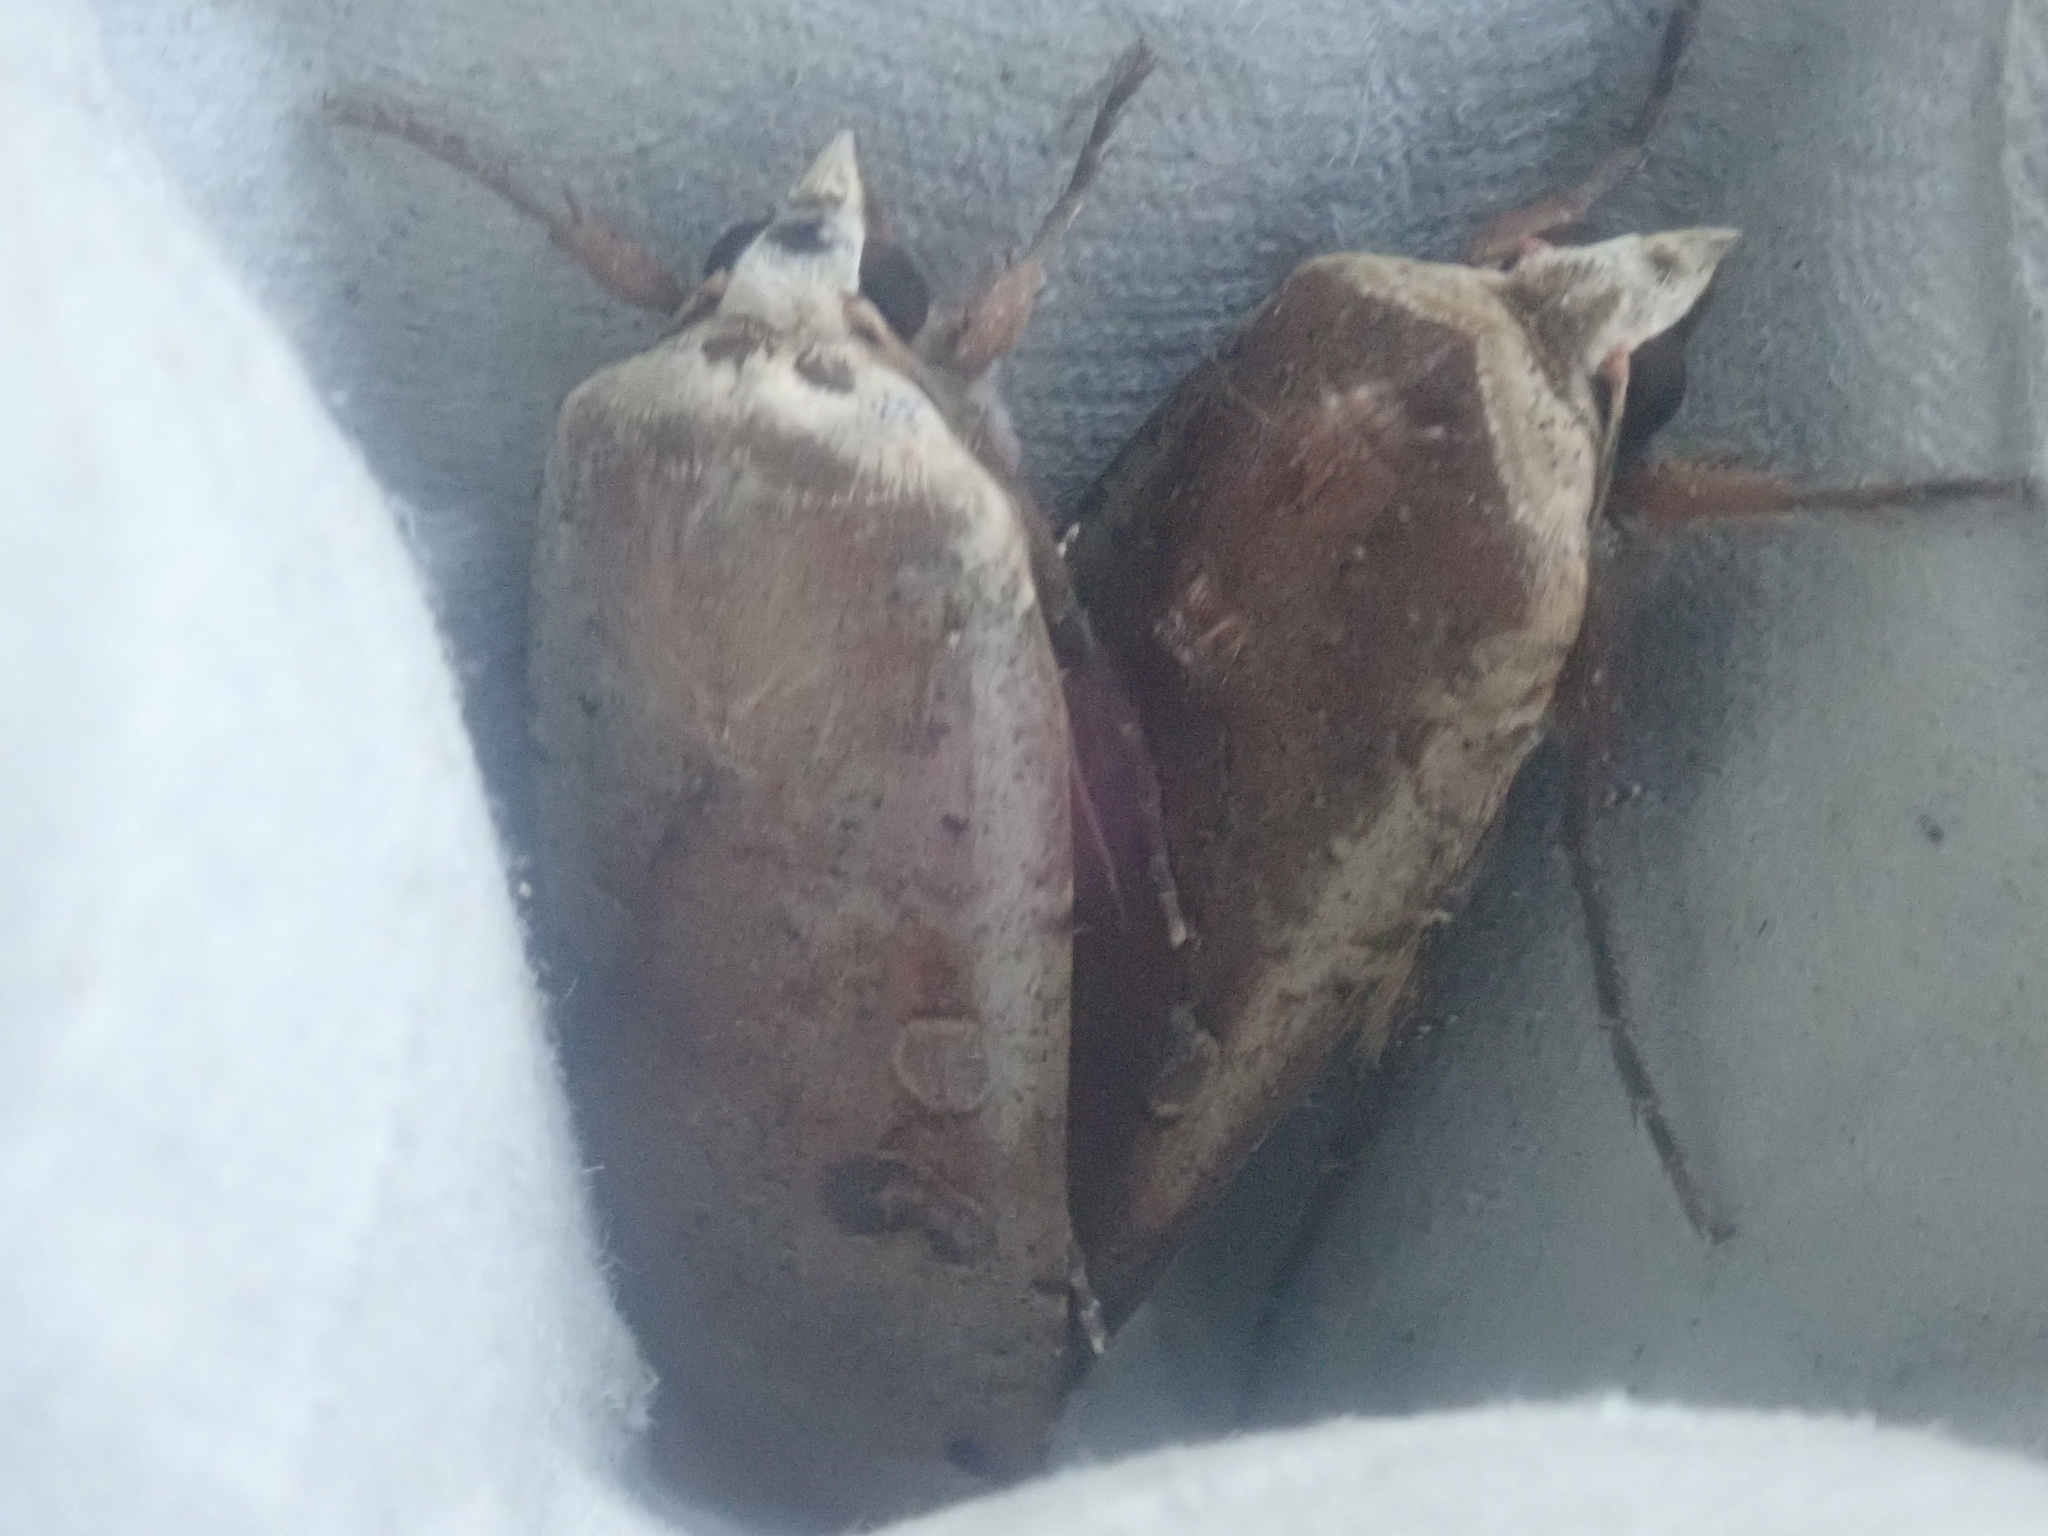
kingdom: Animalia
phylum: Arthropoda
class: Insecta
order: Lepidoptera
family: Noctuidae
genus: Noctua
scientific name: Noctua pronuba
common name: Large yellow underwing
